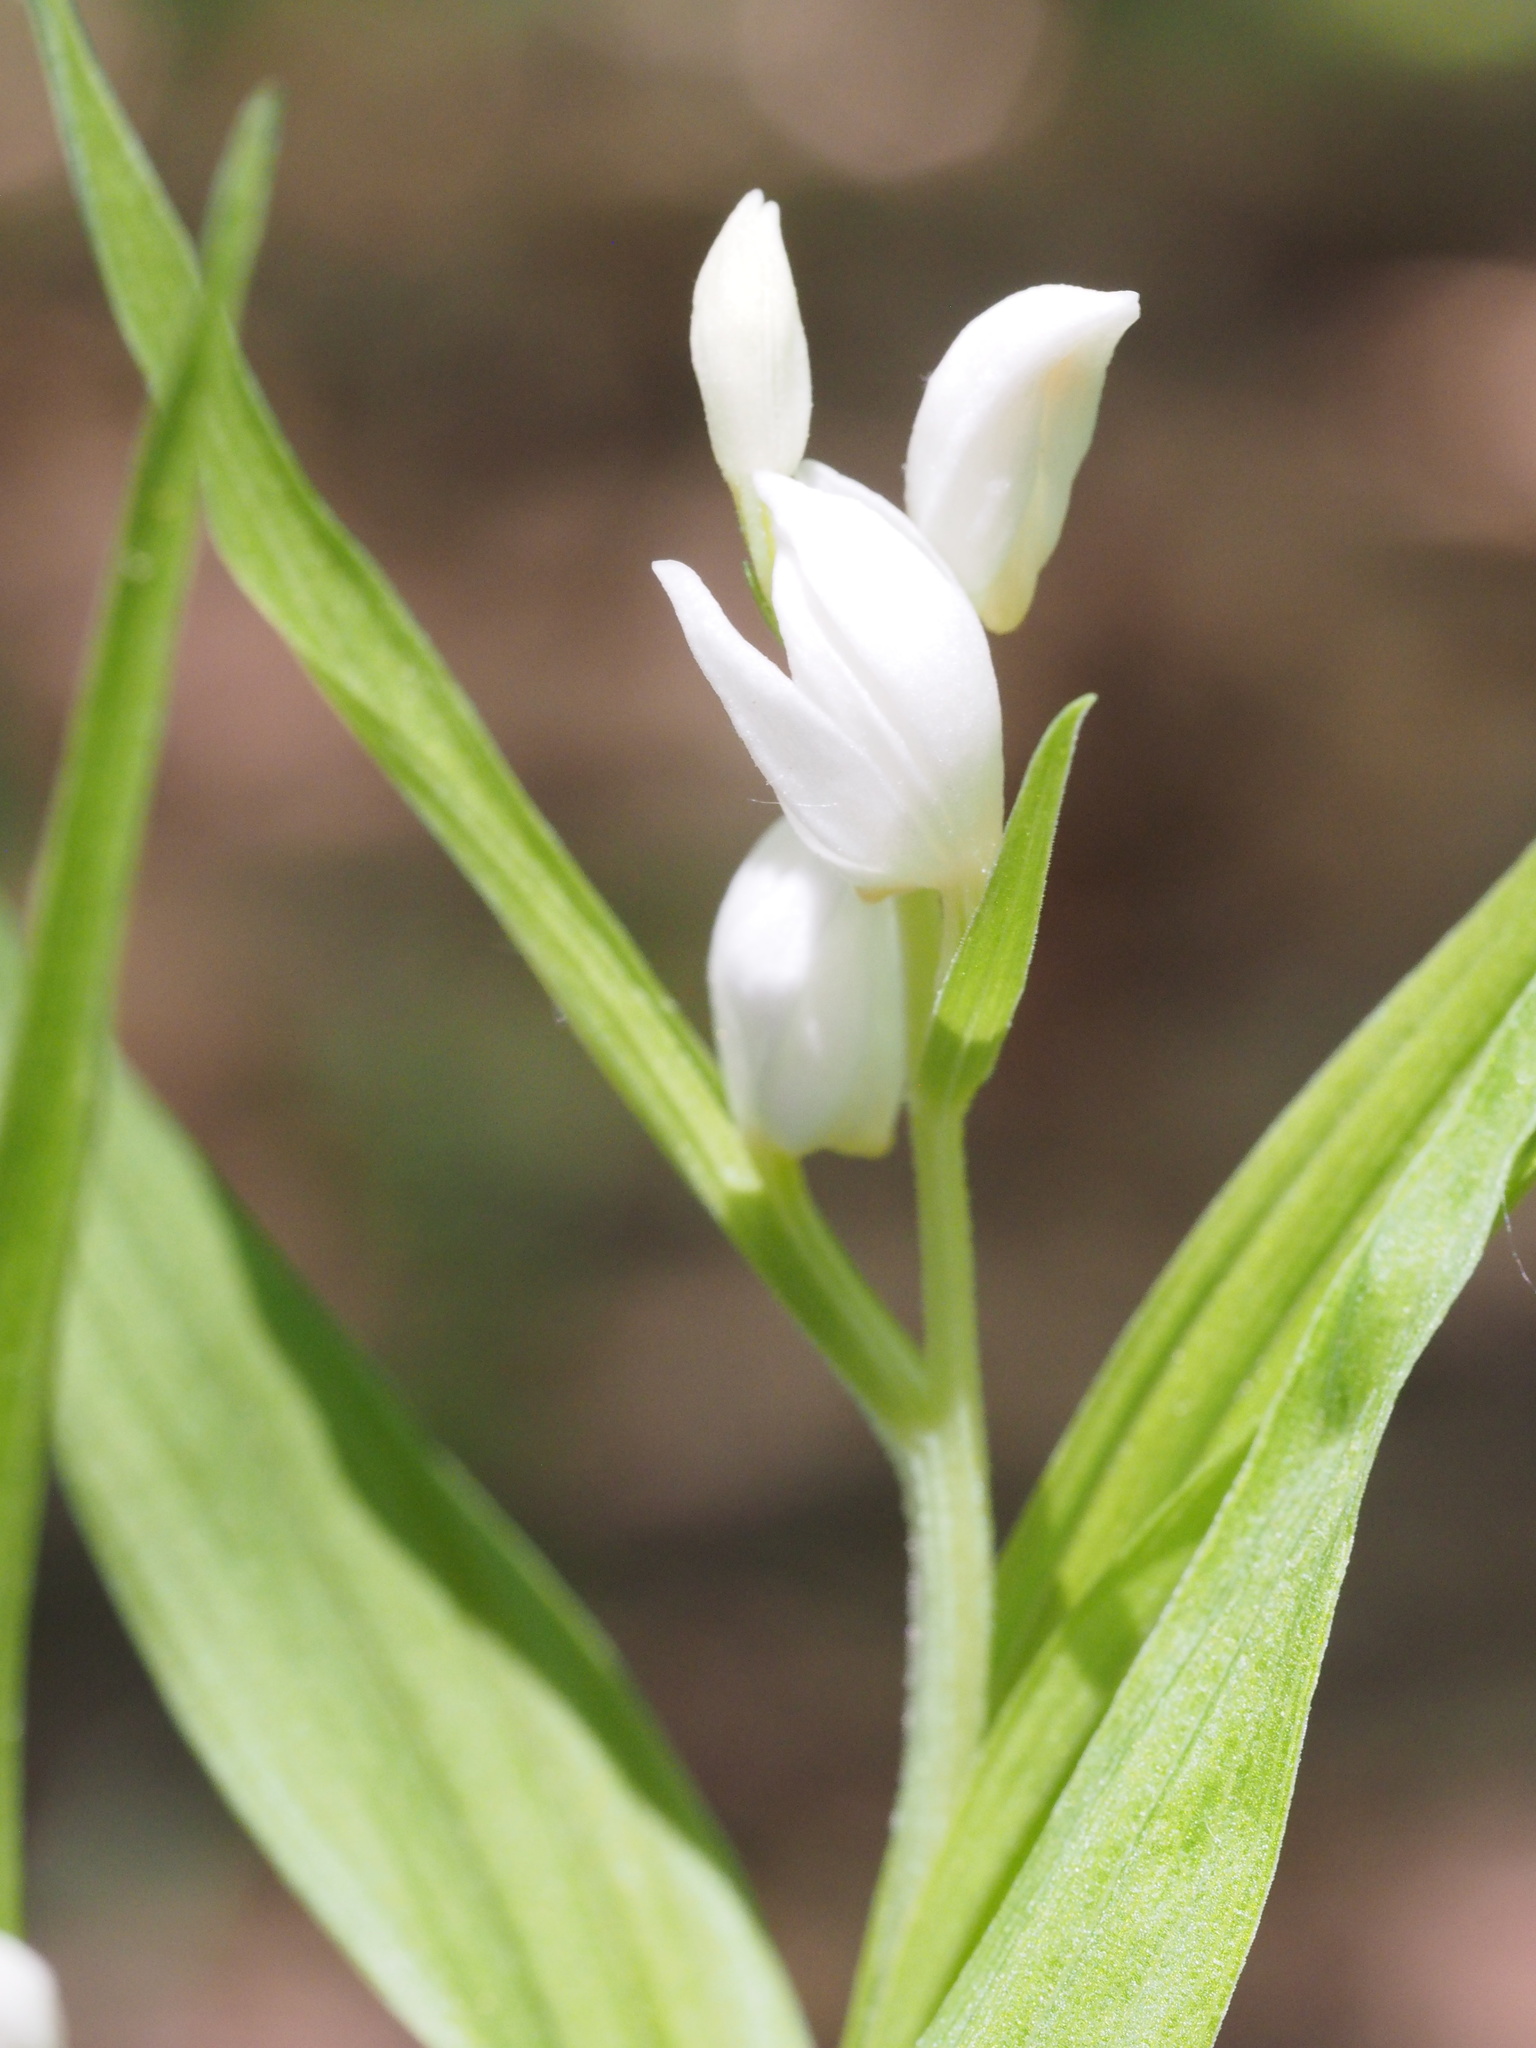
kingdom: Plantae
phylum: Tracheophyta
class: Liliopsida
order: Asparagales
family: Orchidaceae
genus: Cephalanthera
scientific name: Cephalanthera longibracteata
